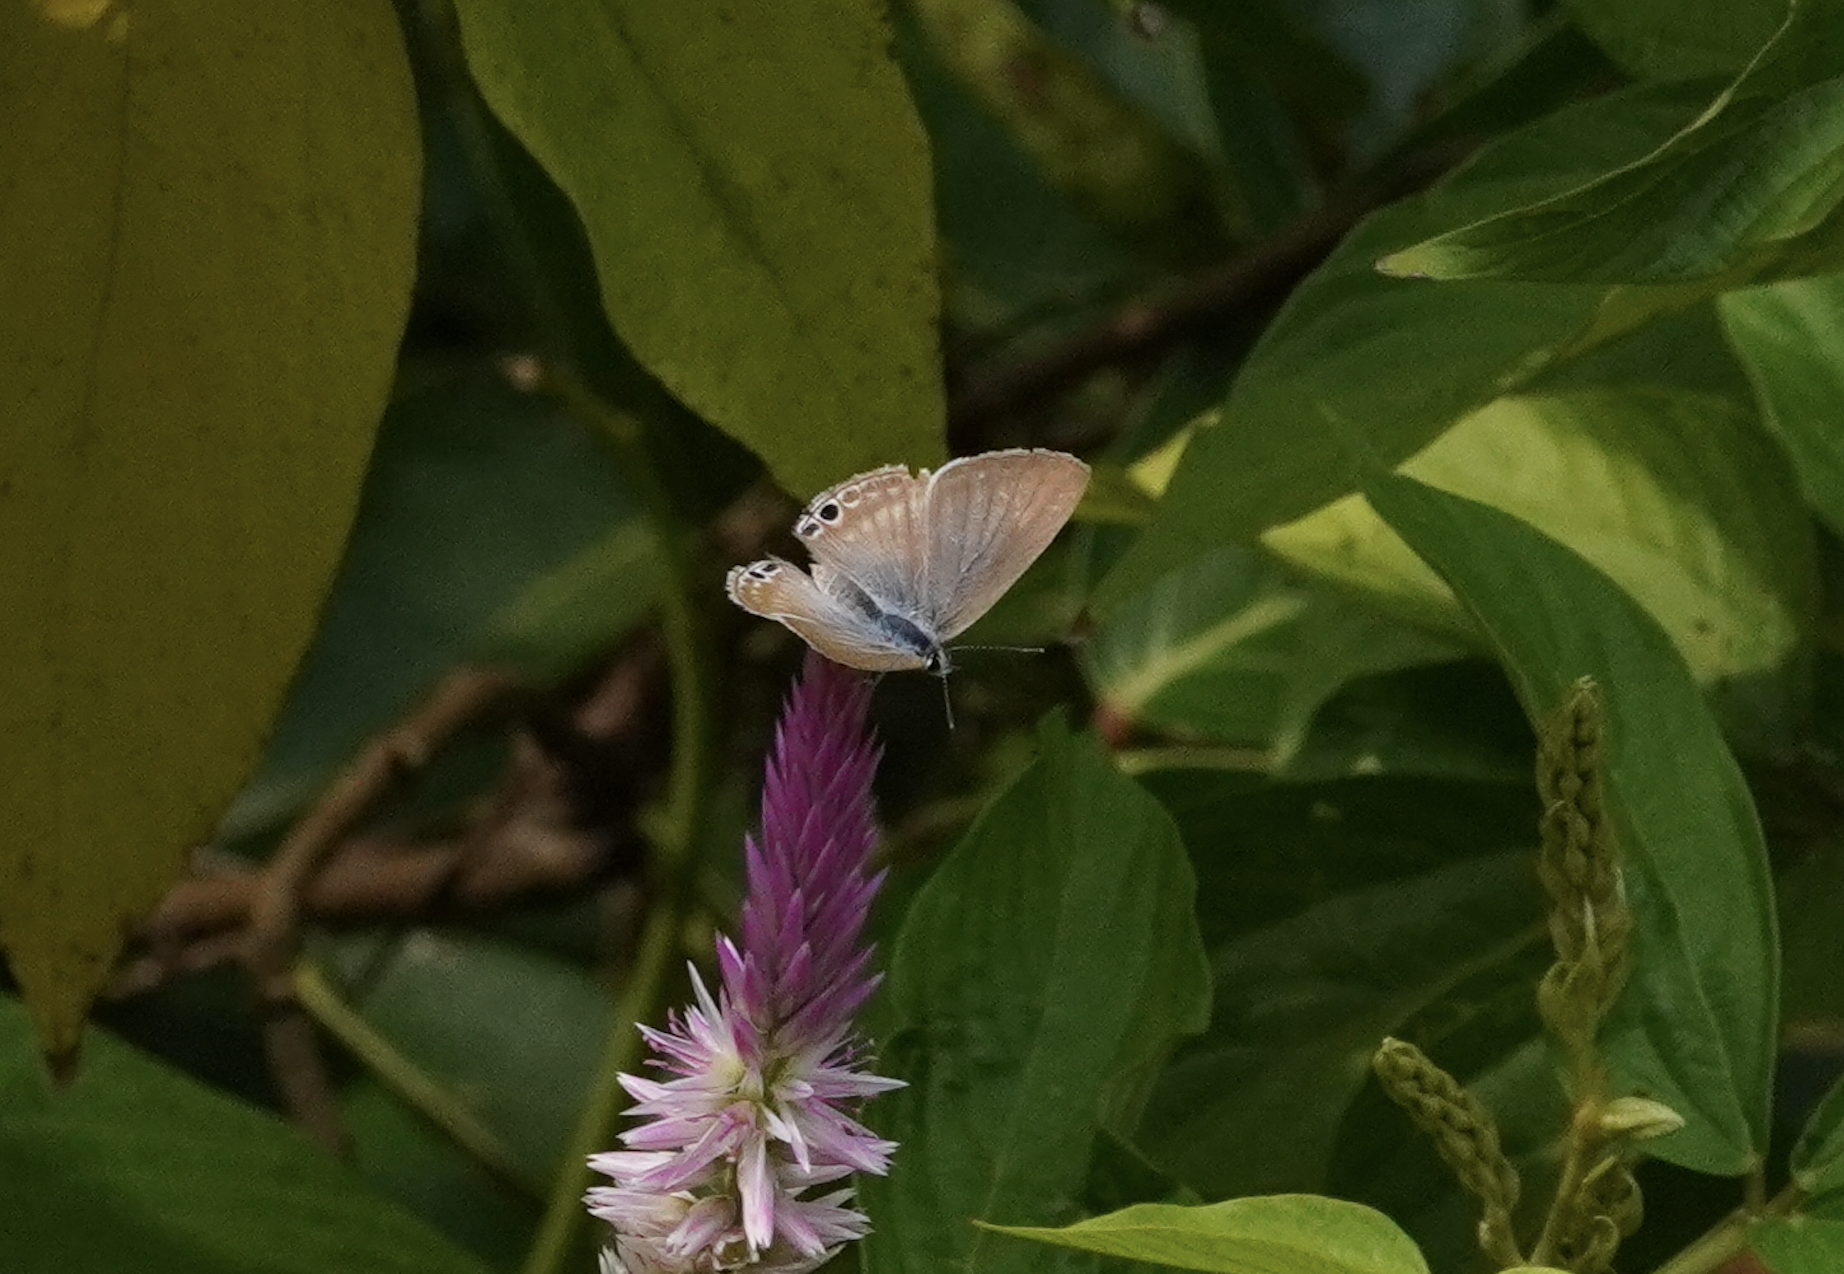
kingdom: Animalia
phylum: Arthropoda
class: Insecta
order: Lepidoptera
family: Lycaenidae
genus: Lampides
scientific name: Lampides boeticus
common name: Long-tailed blue
